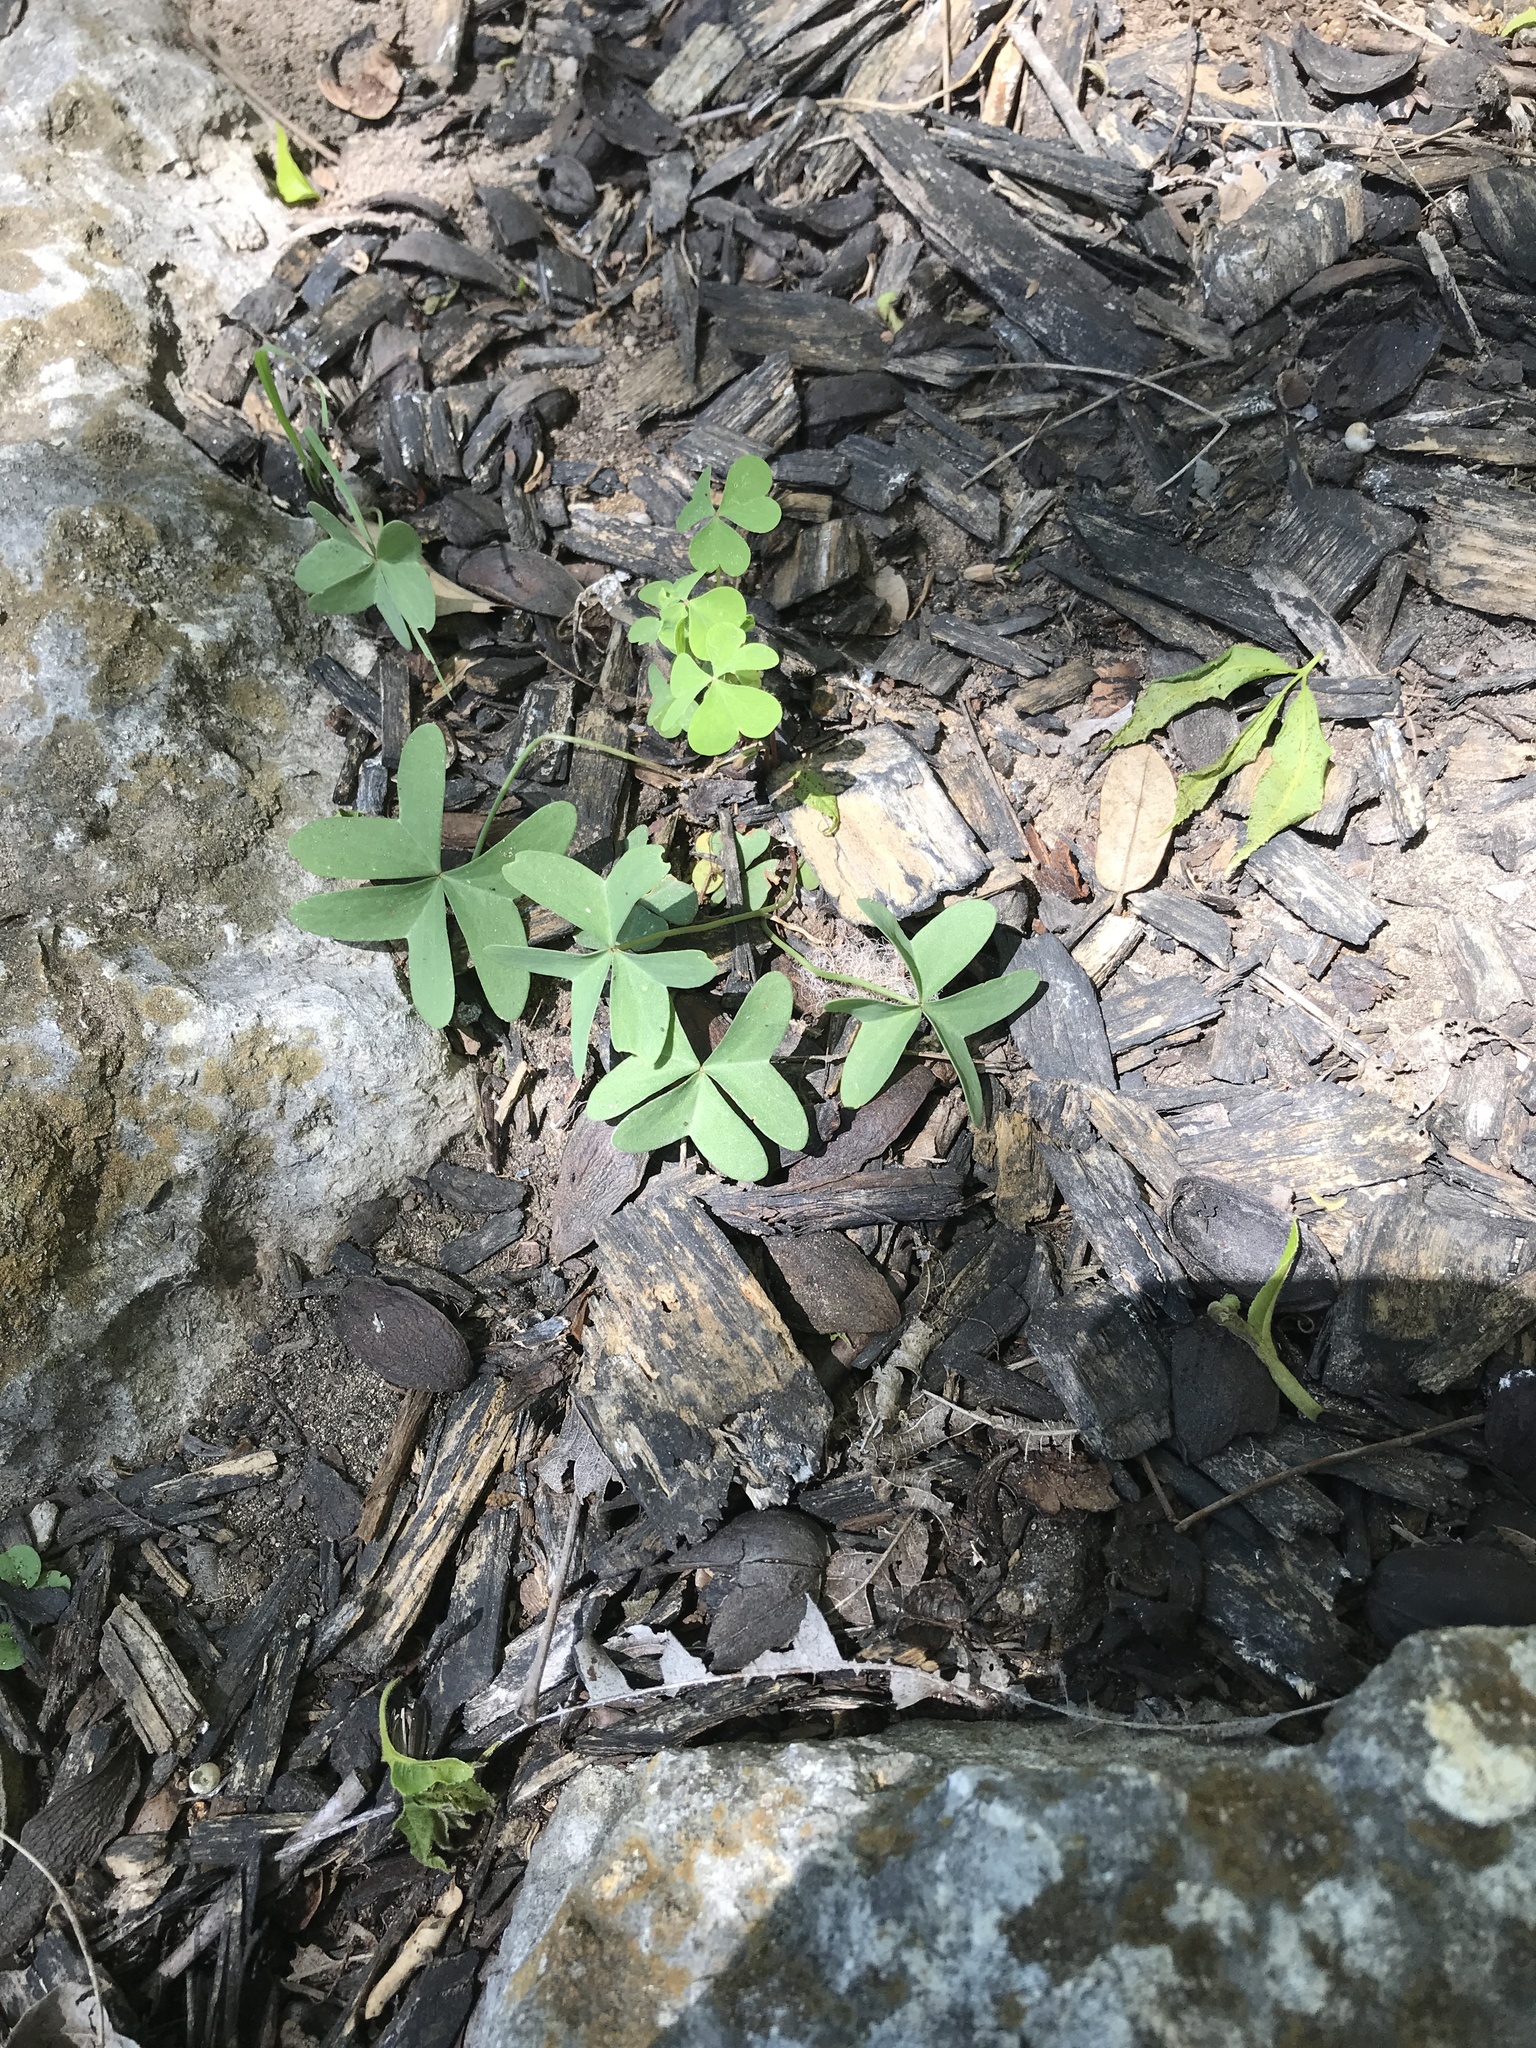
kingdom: Plantae
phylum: Tracheophyta
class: Magnoliopsida
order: Oxalidales
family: Oxalidaceae
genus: Oxalis
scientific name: Oxalis drummondii
